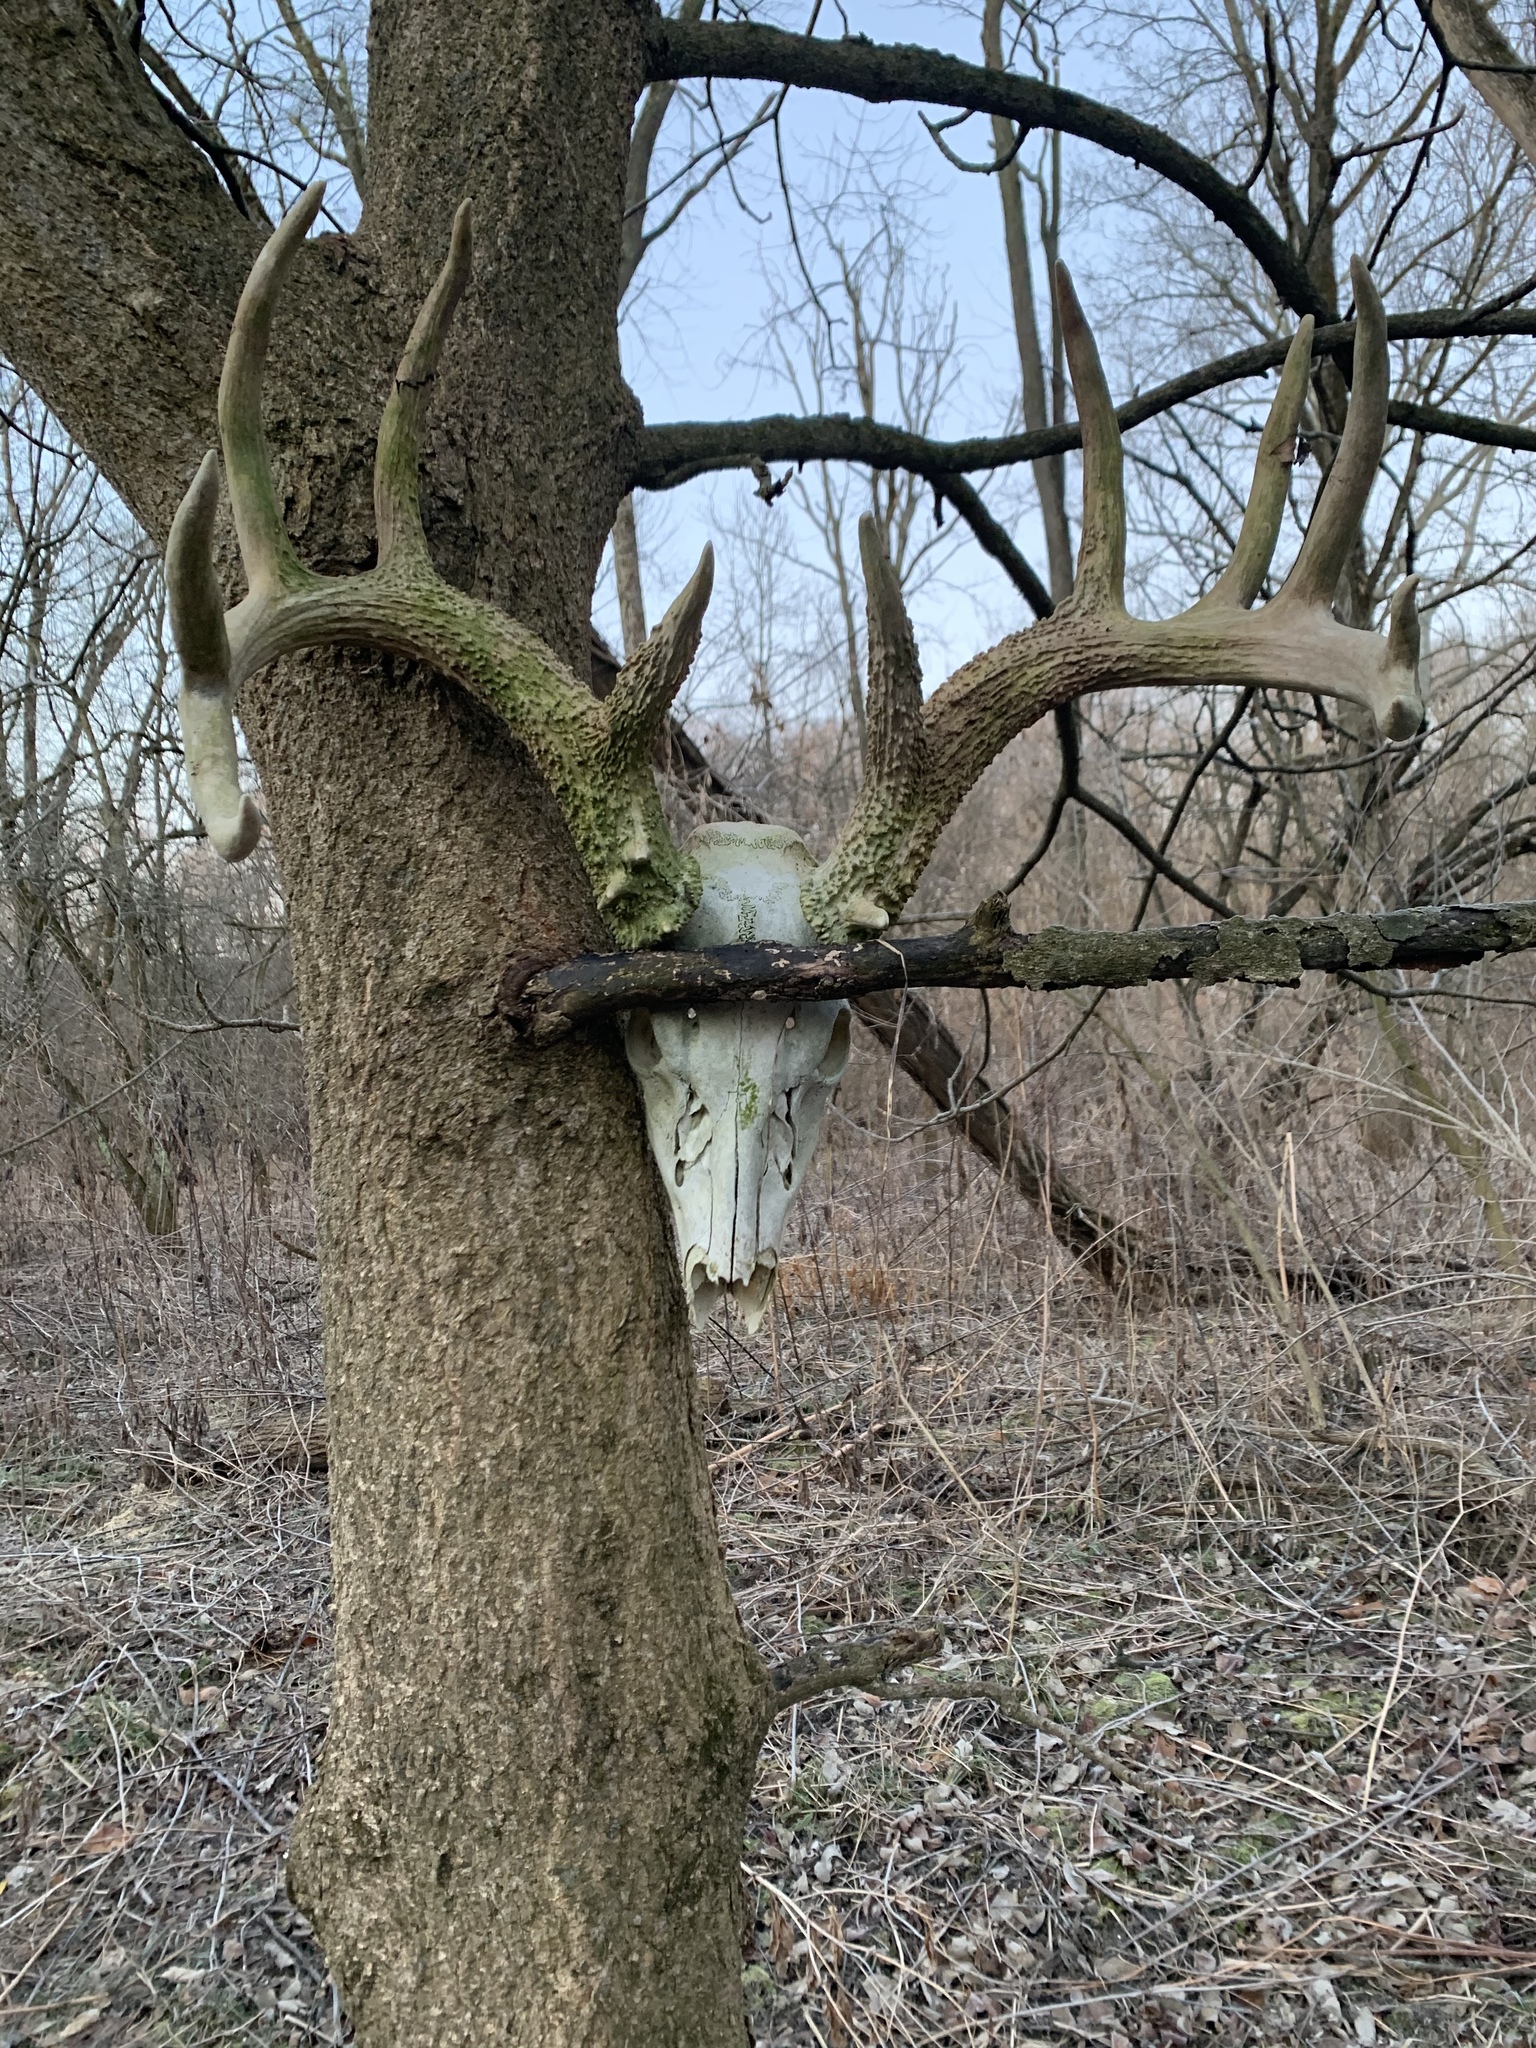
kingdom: Animalia
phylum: Chordata
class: Mammalia
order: Artiodactyla
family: Cervidae
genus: Odocoileus
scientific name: Odocoileus virginianus
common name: White-tailed deer
